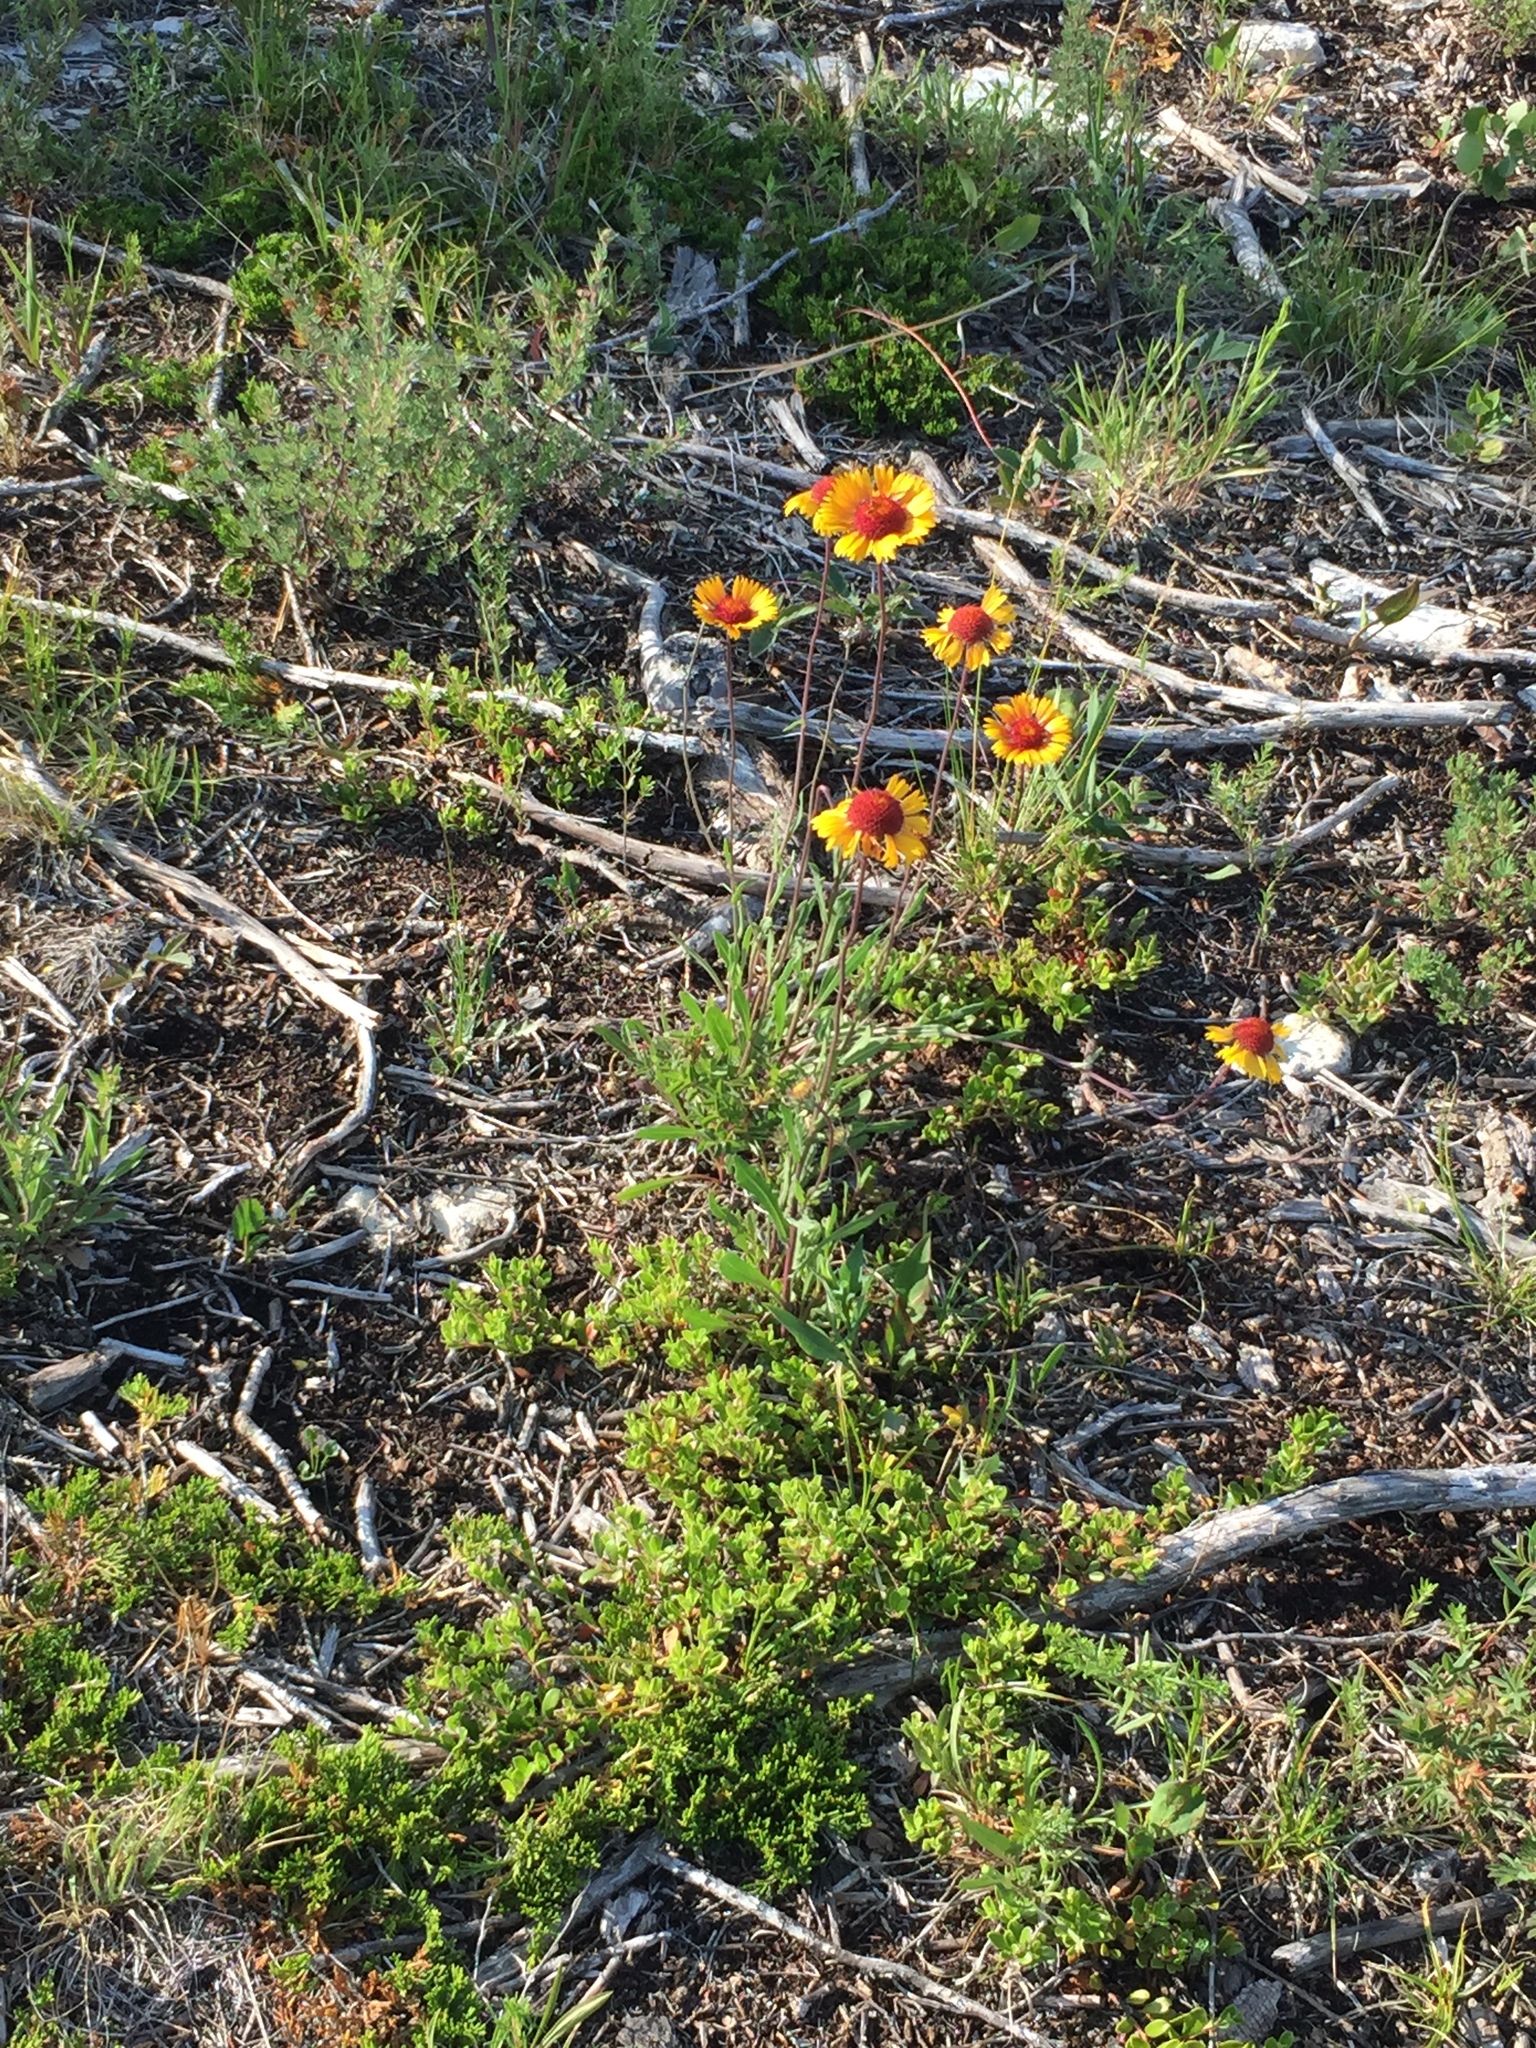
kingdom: Plantae
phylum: Tracheophyta
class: Magnoliopsida
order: Asterales
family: Asteraceae
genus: Gaillardia
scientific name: Gaillardia aristata
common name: Blanket-flower
